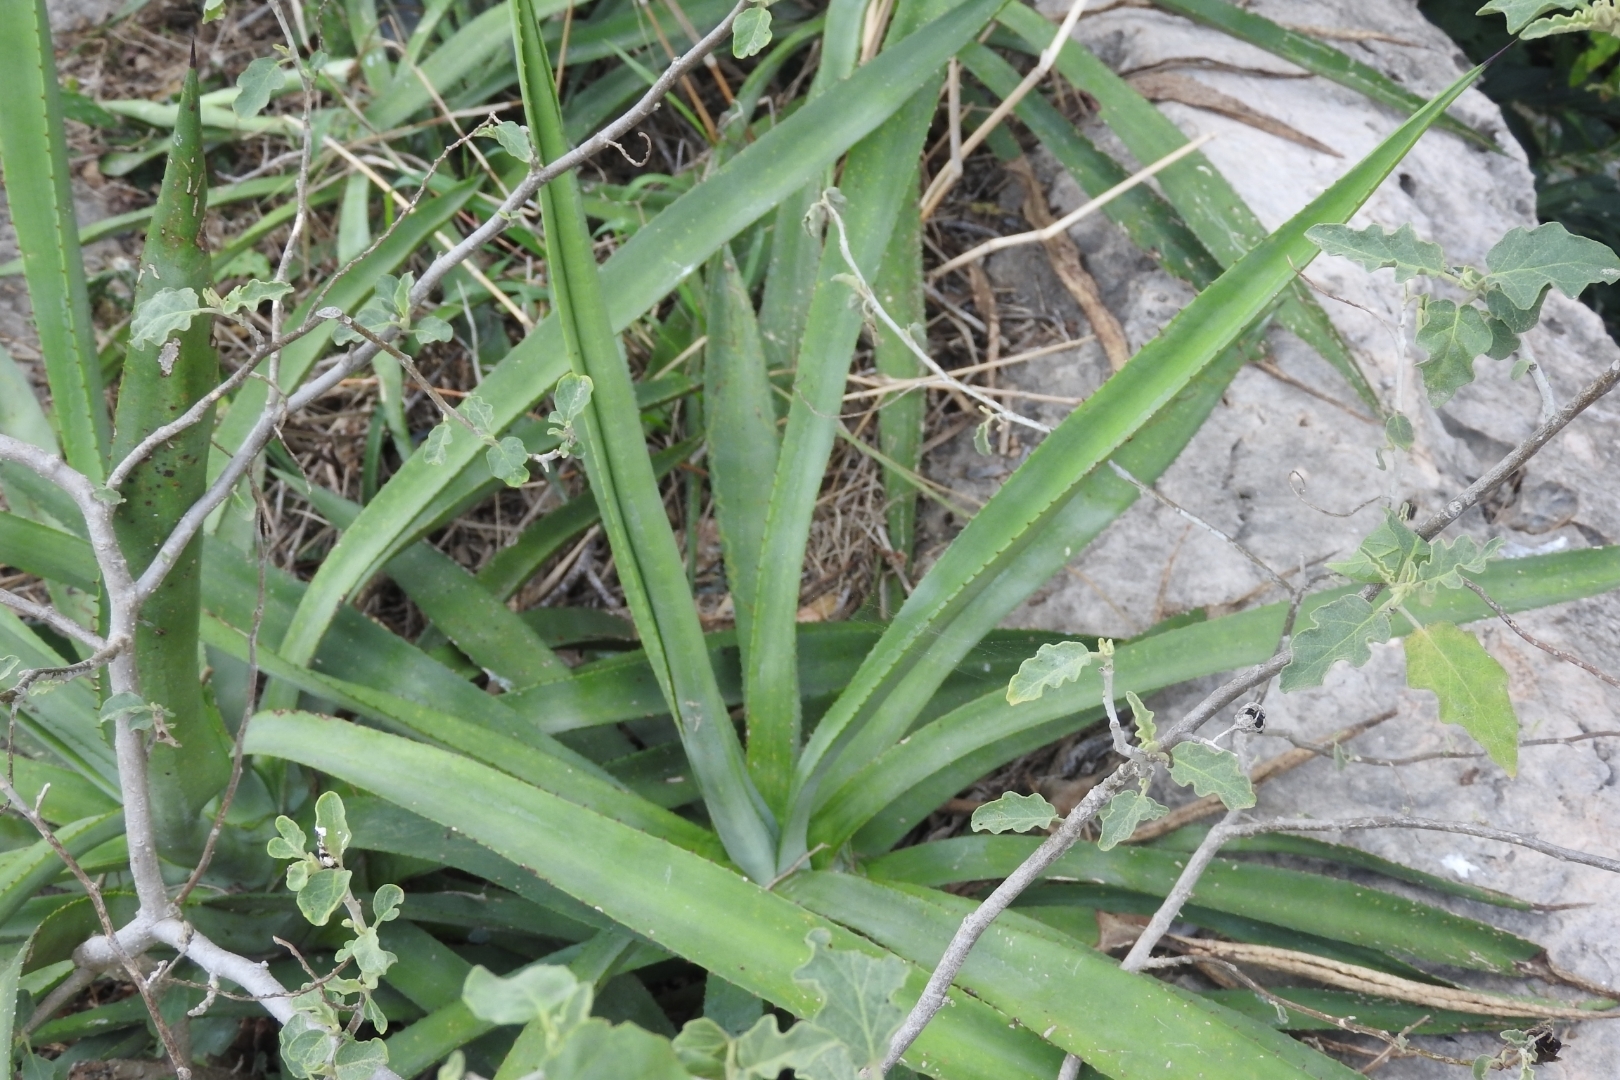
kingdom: Plantae
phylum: Tracheophyta
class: Liliopsida
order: Asparagales
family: Asparagaceae
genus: Agave
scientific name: Agave vivipara
